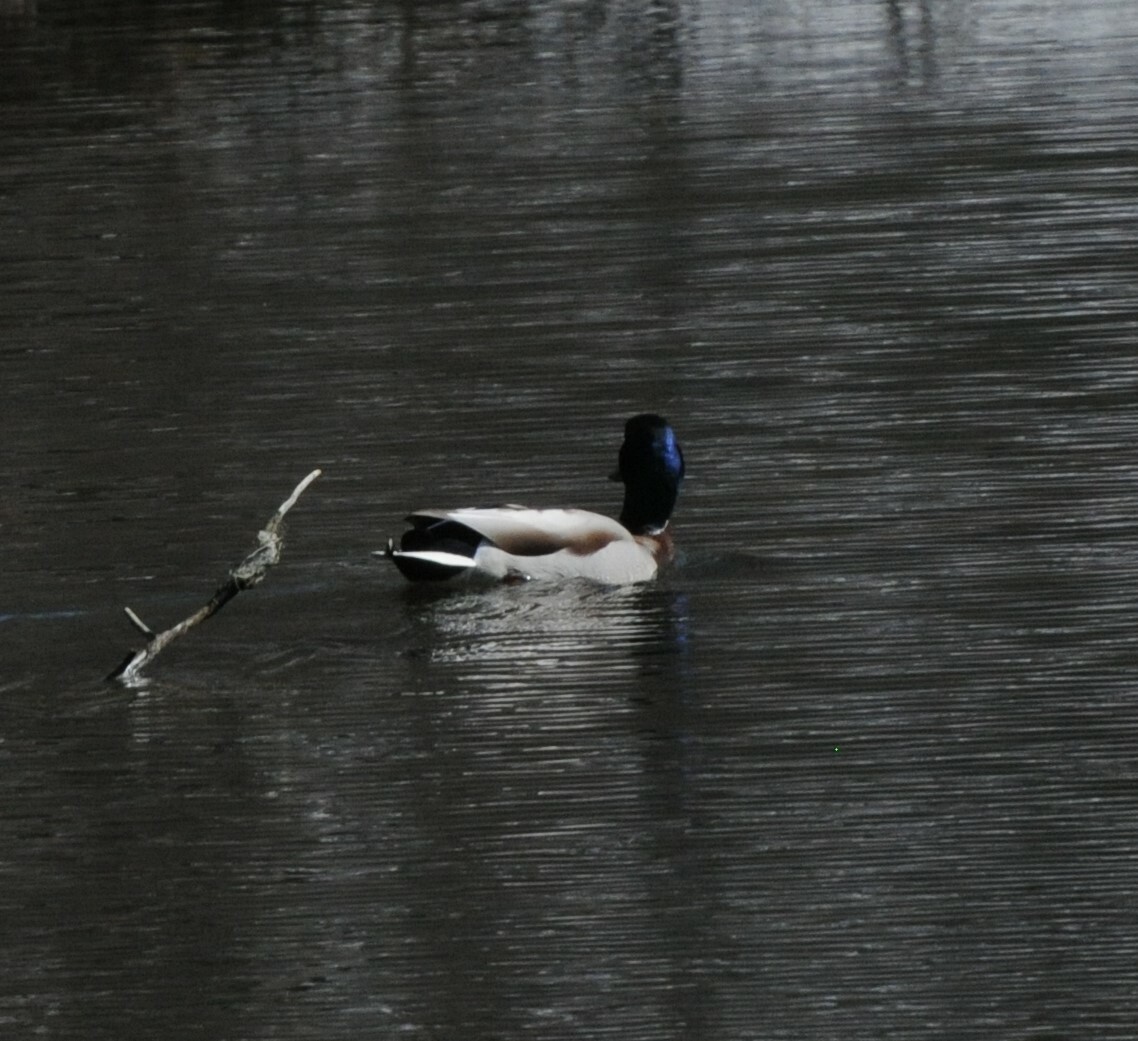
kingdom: Animalia
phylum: Chordata
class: Aves
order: Anseriformes
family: Anatidae
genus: Anas
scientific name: Anas platyrhynchos
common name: Mallard
